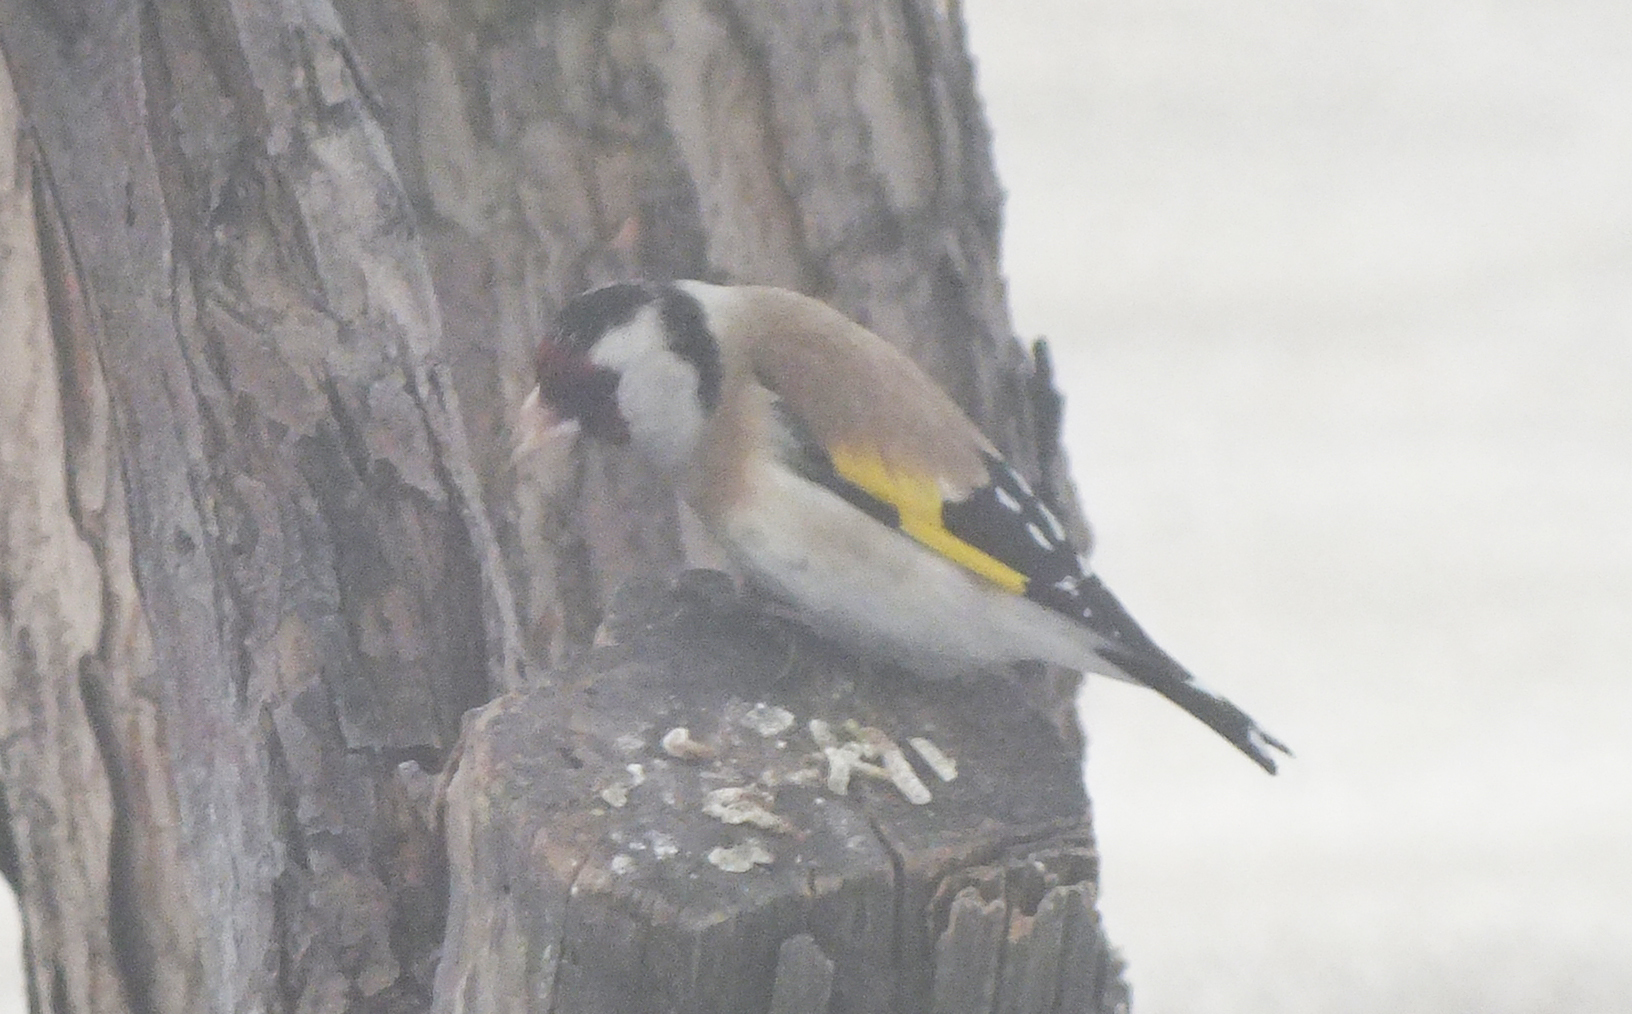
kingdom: Animalia
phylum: Chordata
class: Aves
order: Passeriformes
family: Fringillidae
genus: Carduelis
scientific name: Carduelis carduelis
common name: European goldfinch
